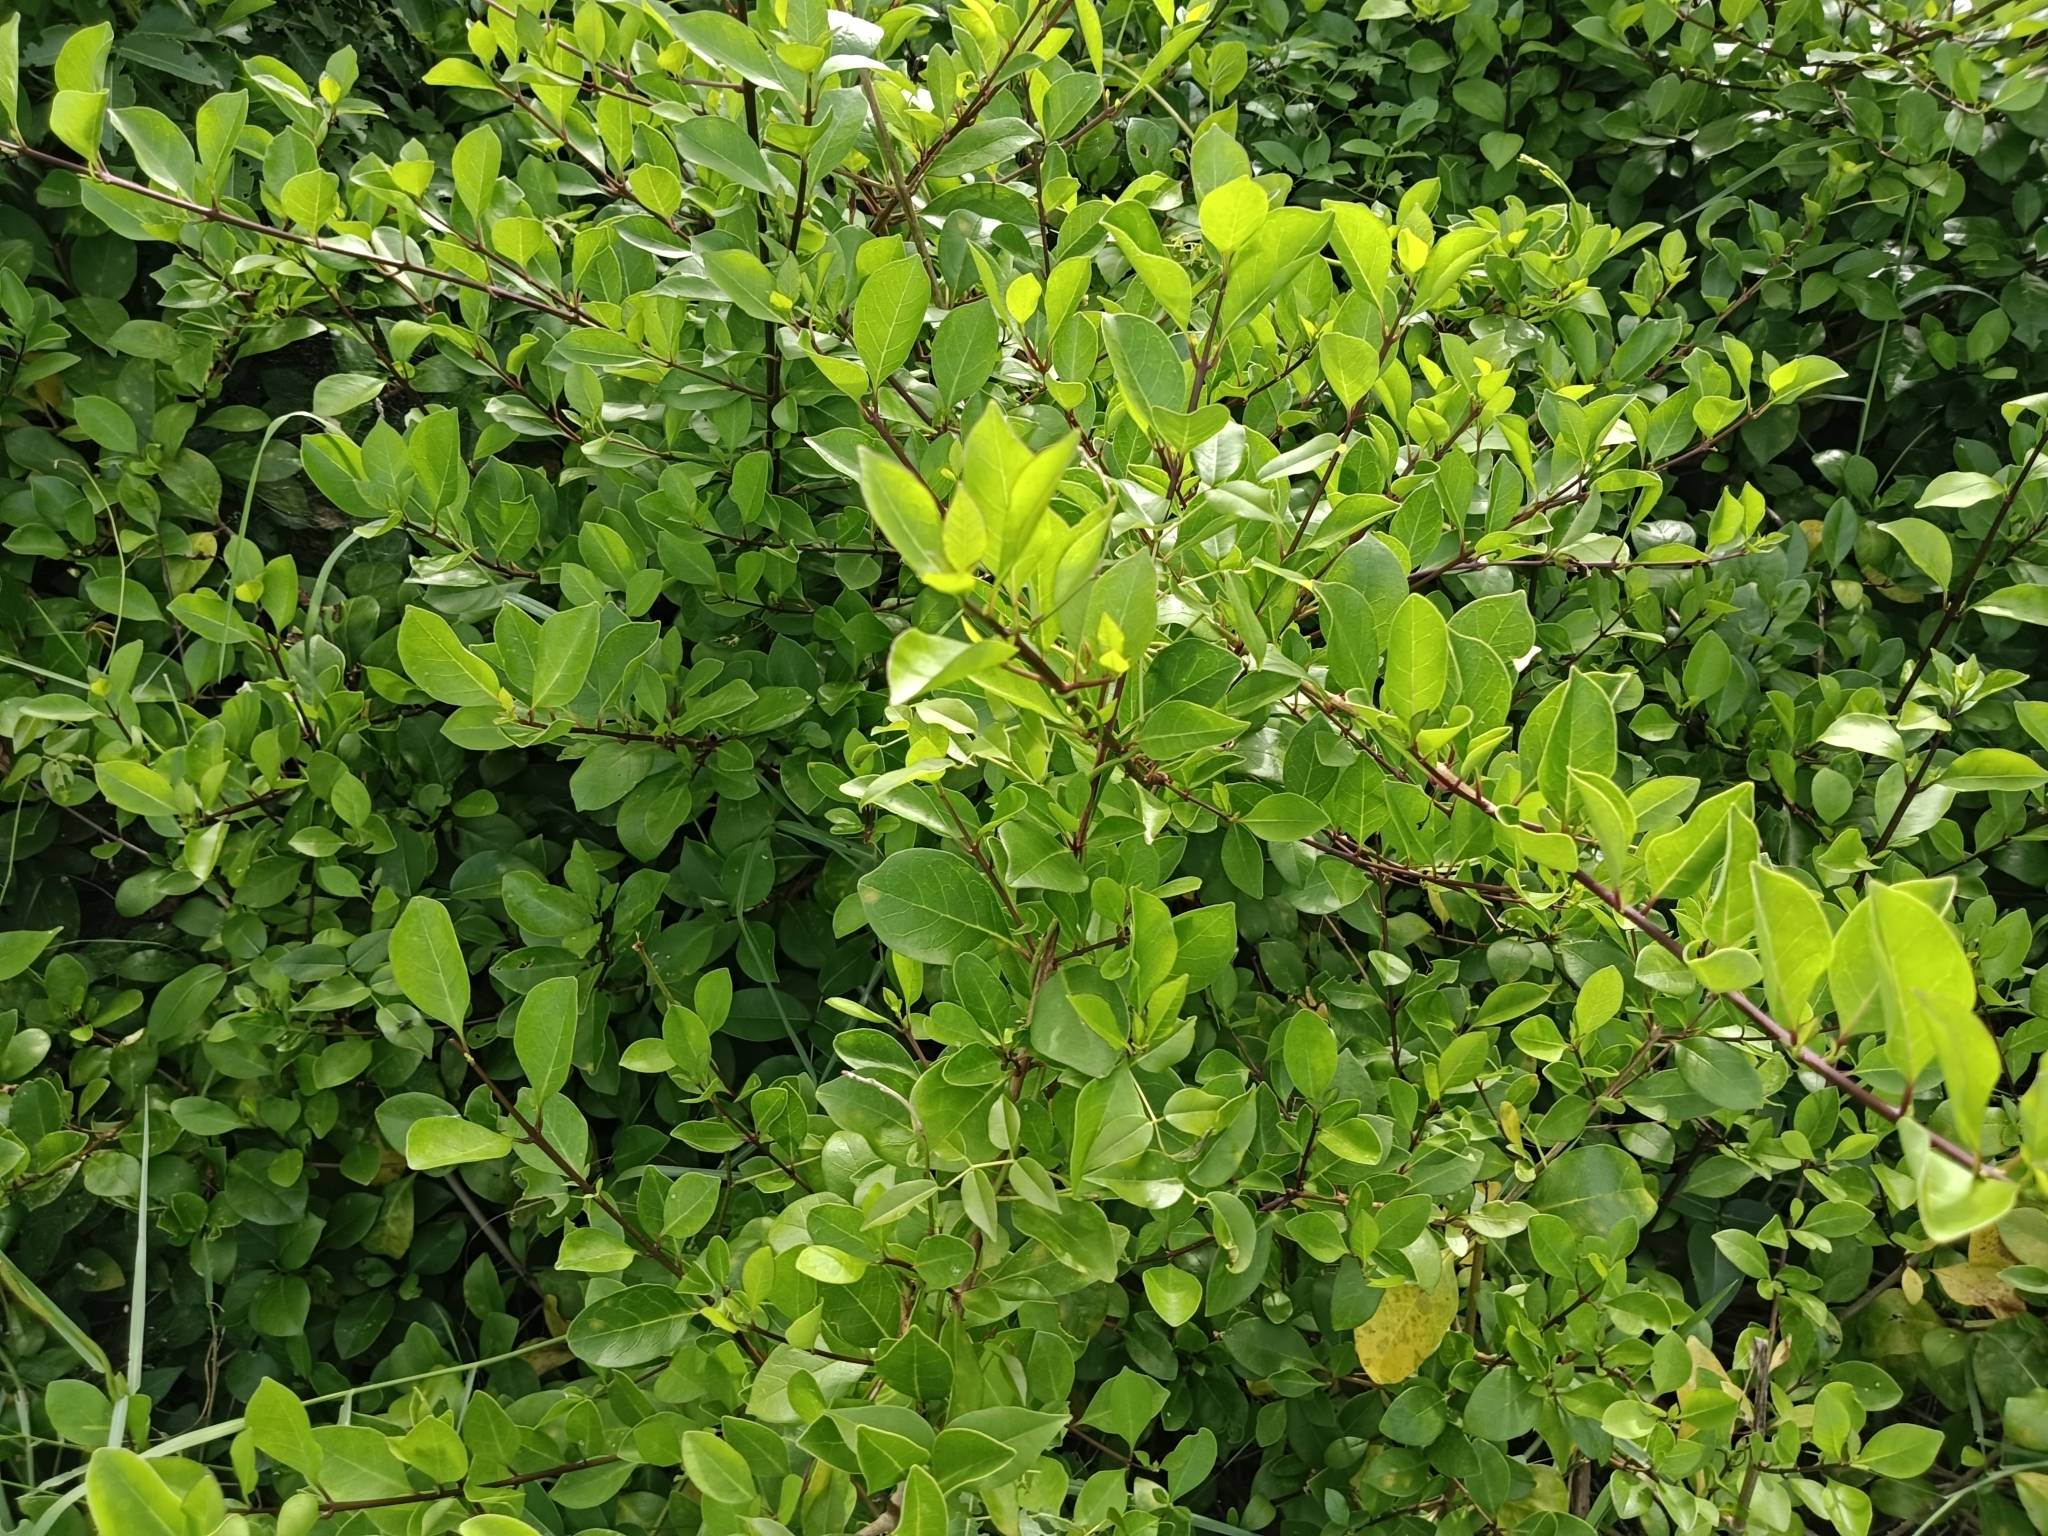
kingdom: Plantae
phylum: Tracheophyta
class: Magnoliopsida
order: Lamiales
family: Lamiaceae
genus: Volkameria
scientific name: Volkameria inermis
